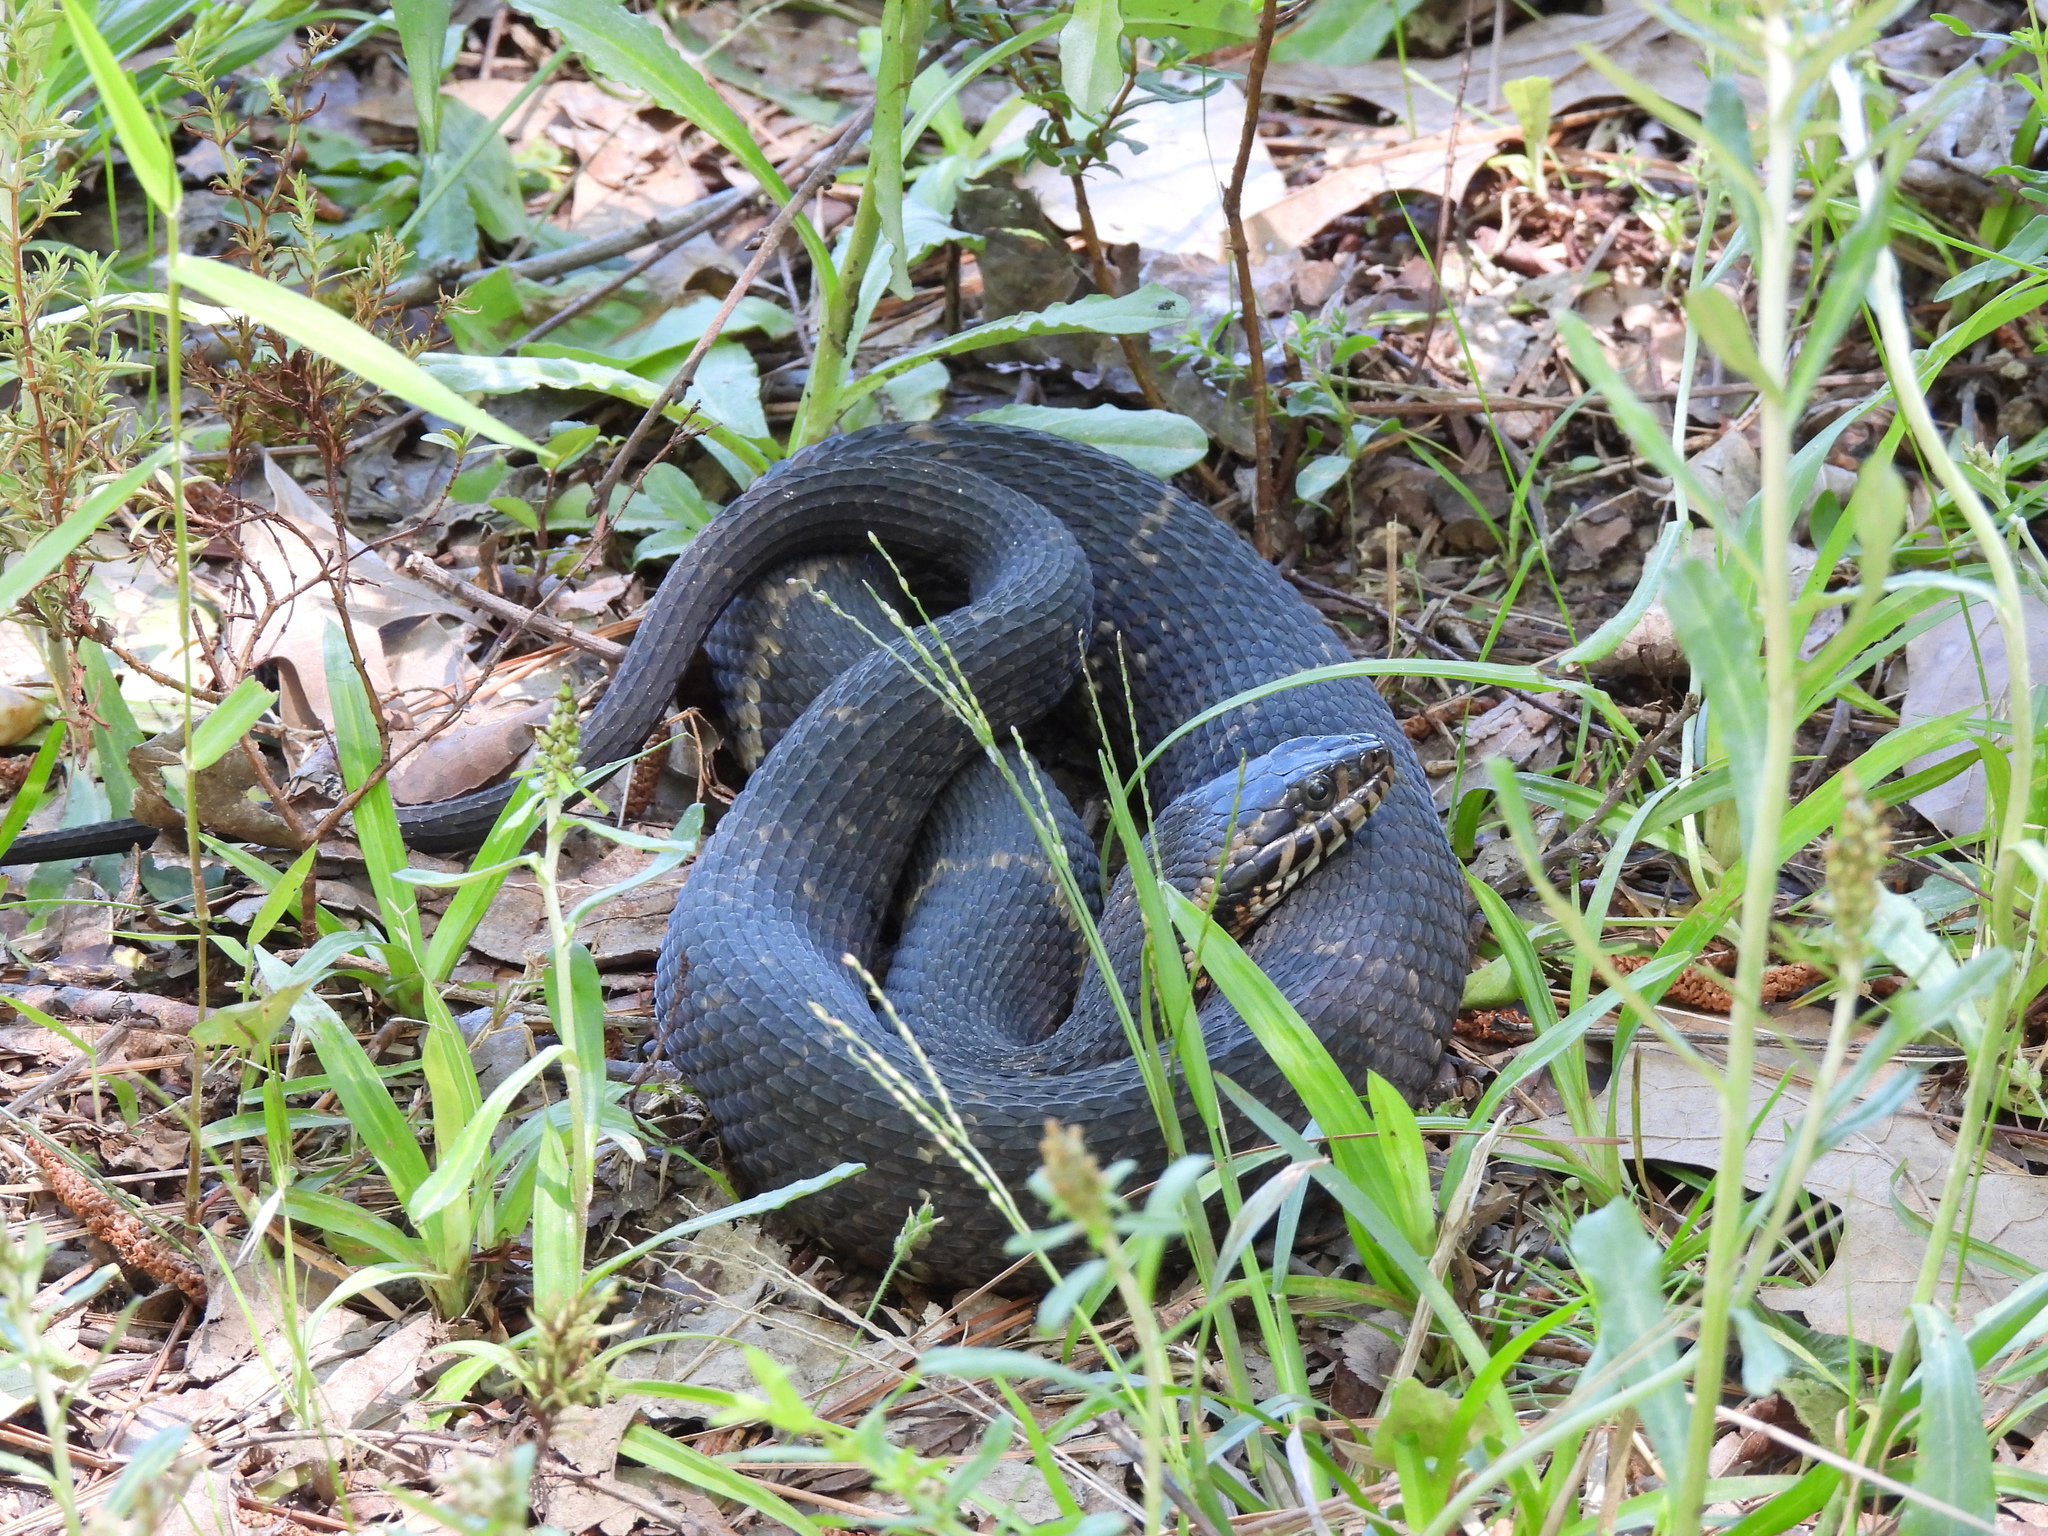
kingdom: Animalia
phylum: Chordata
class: Squamata
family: Colubridae
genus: Nerodia
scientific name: Nerodia fasciata
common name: Southern water snake
